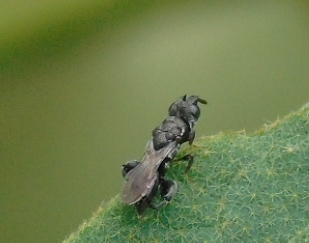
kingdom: Animalia
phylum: Arthropoda
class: Insecta
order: Hymenoptera
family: Chalcididae
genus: Dirhinus
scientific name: Dirhinus
